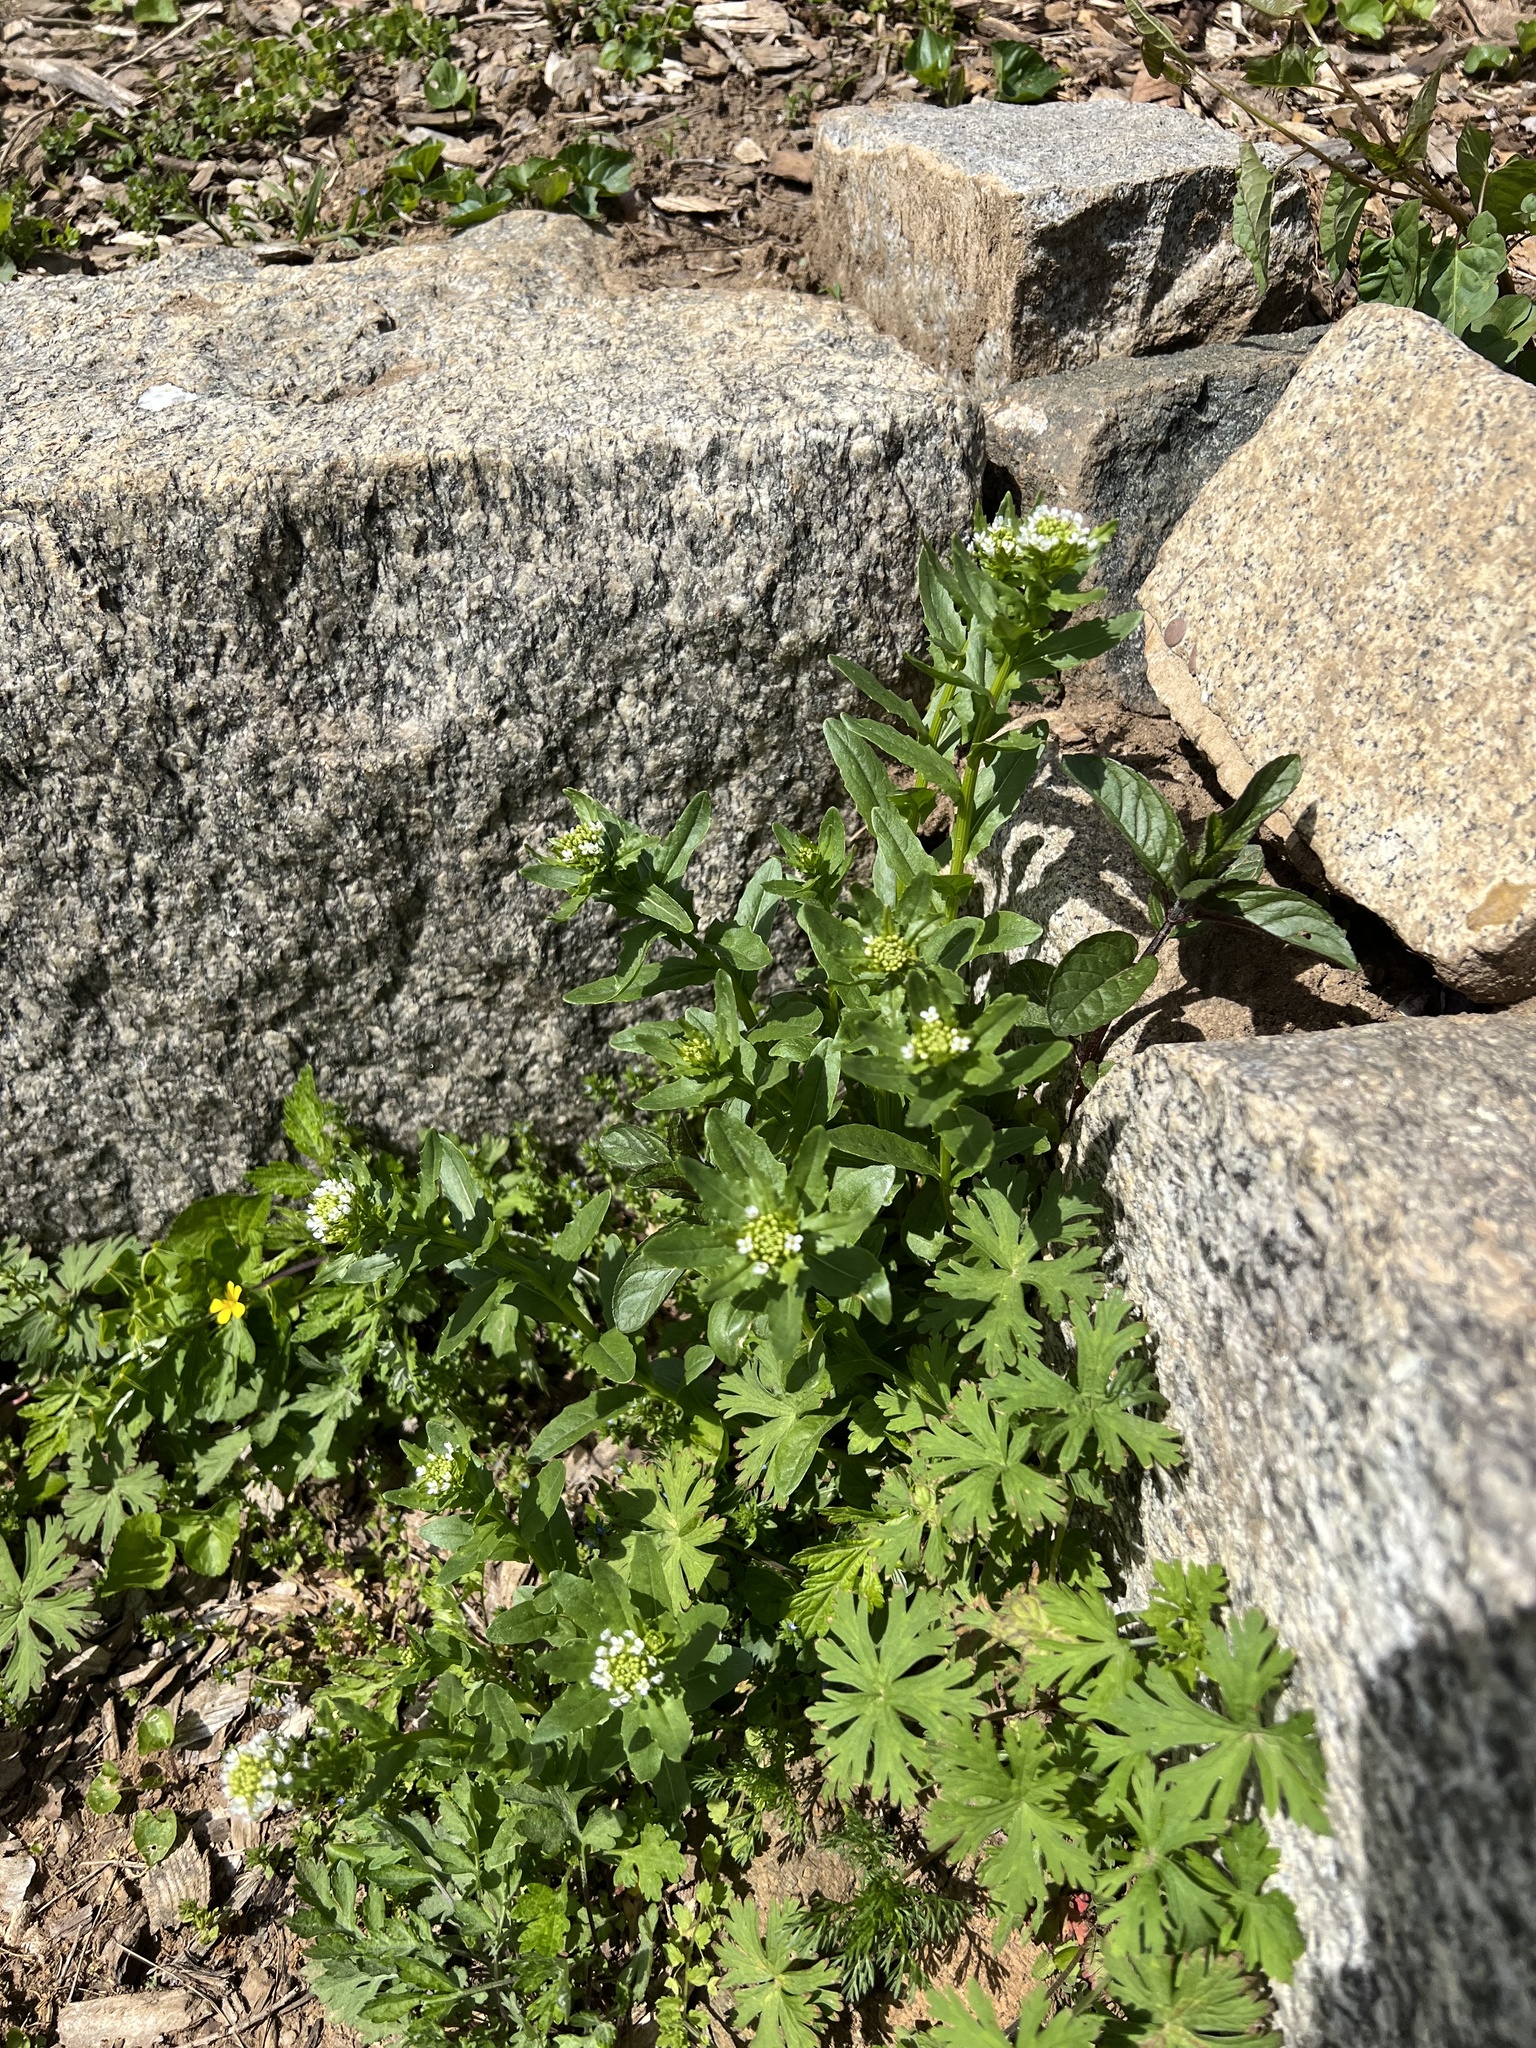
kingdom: Plantae
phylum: Tracheophyta
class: Magnoliopsida
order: Brassicales
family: Brassicaceae
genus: Thlaspi
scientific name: Thlaspi arvense
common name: Field pennycress
